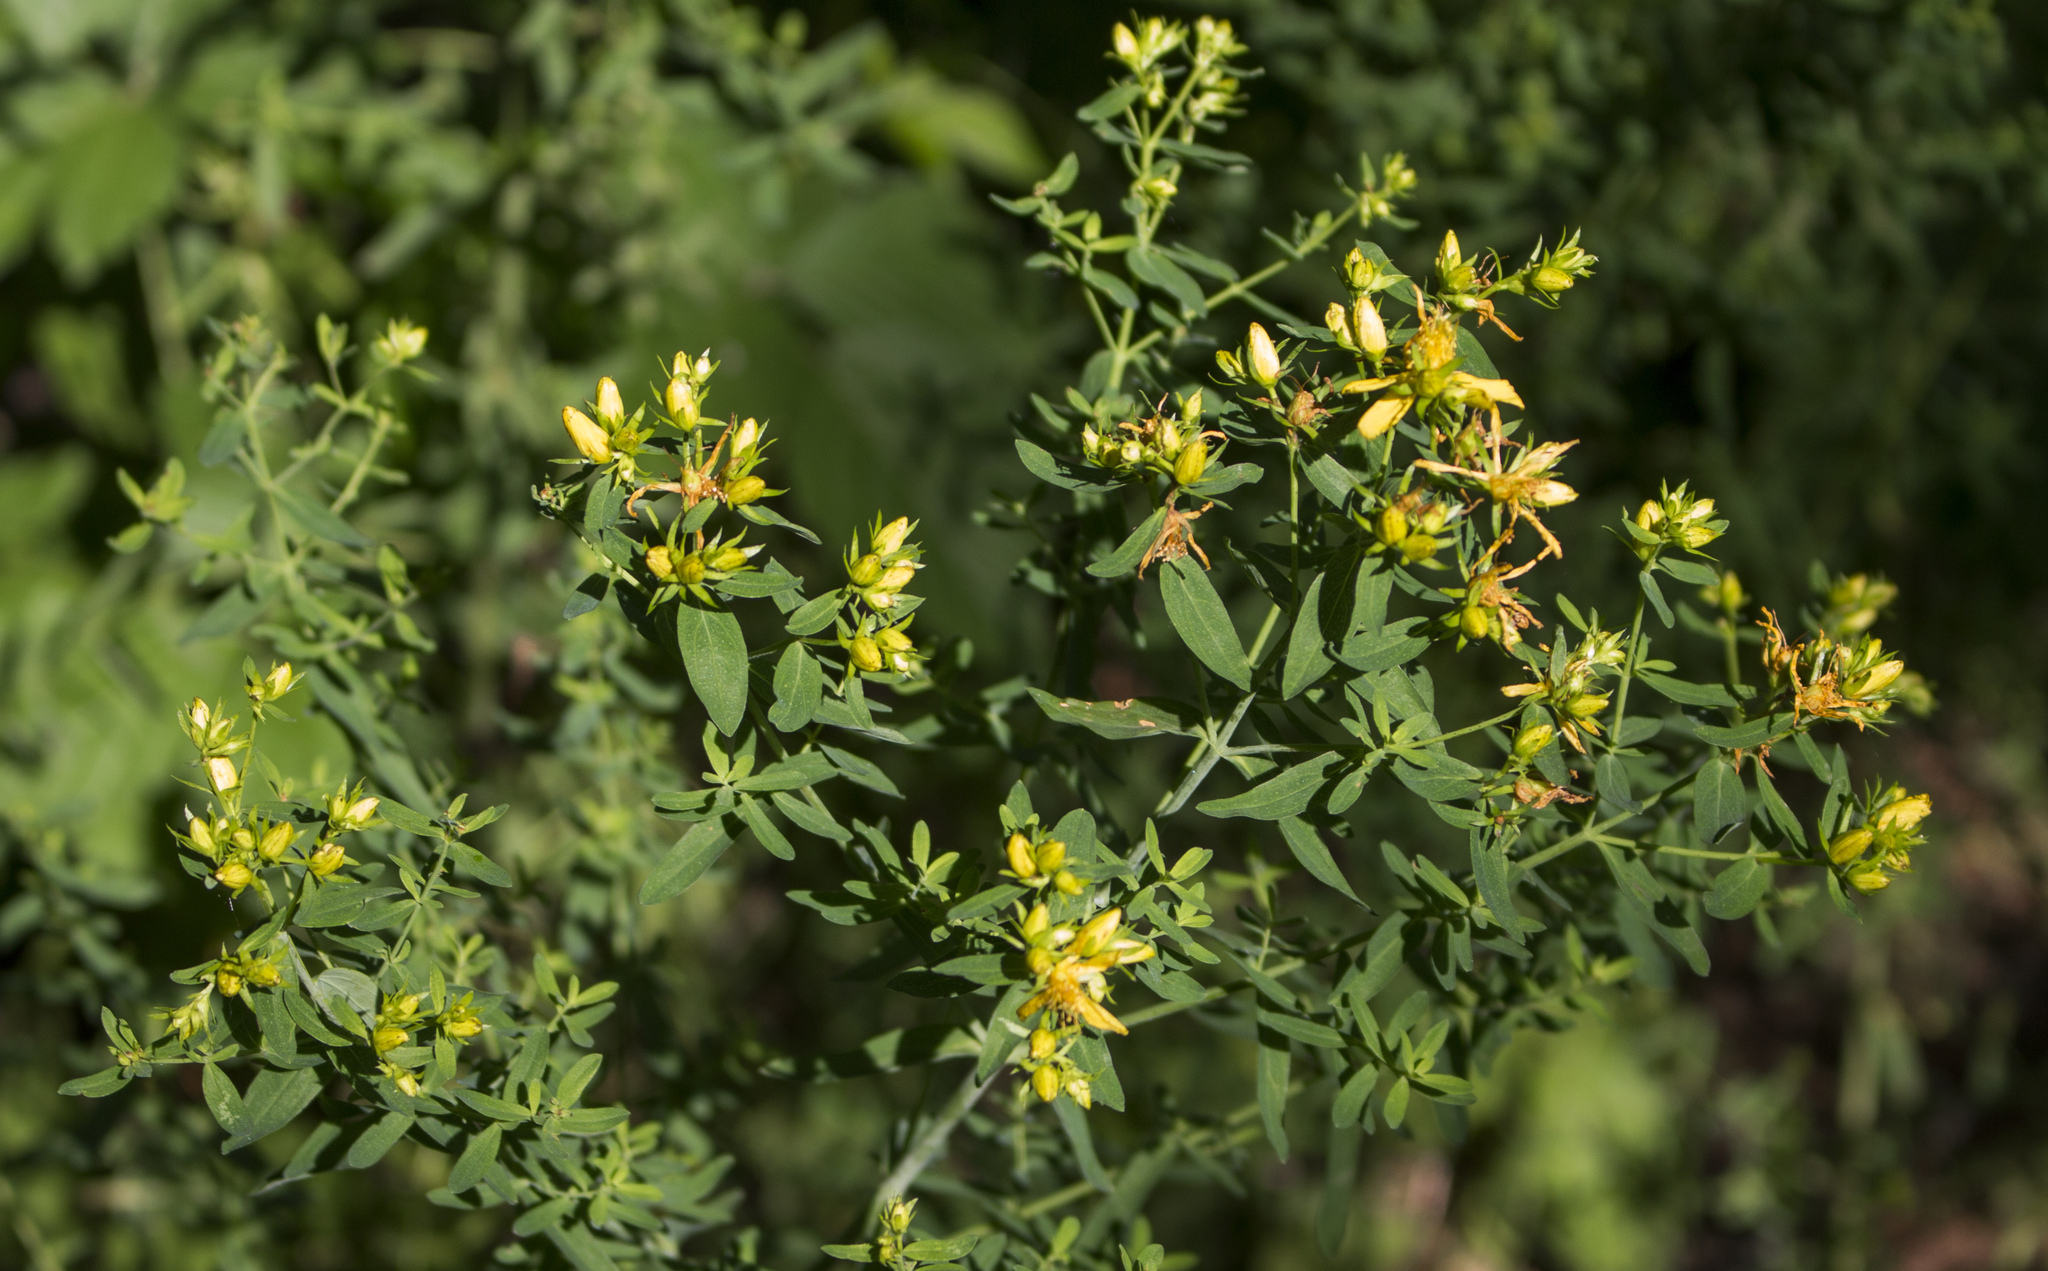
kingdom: Plantae
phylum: Tracheophyta
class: Magnoliopsida
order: Malpighiales
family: Hypericaceae
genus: Hypericum
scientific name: Hypericum perforatum
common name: Common st. johnswort
